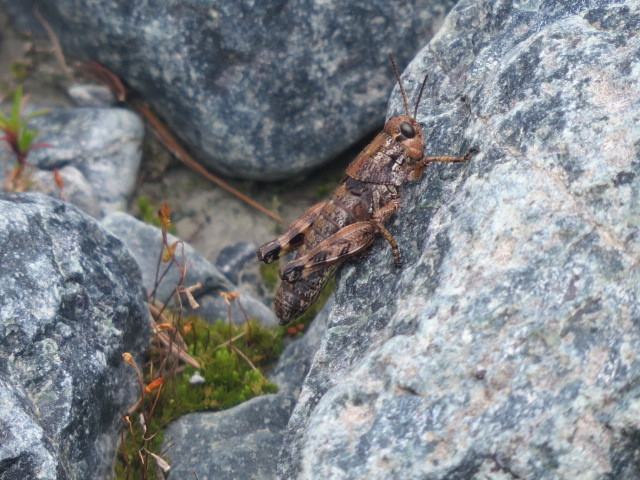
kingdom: Animalia
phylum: Arthropoda
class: Insecta
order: Orthoptera
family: Acrididae
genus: Podisma
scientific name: Podisma pedestris
